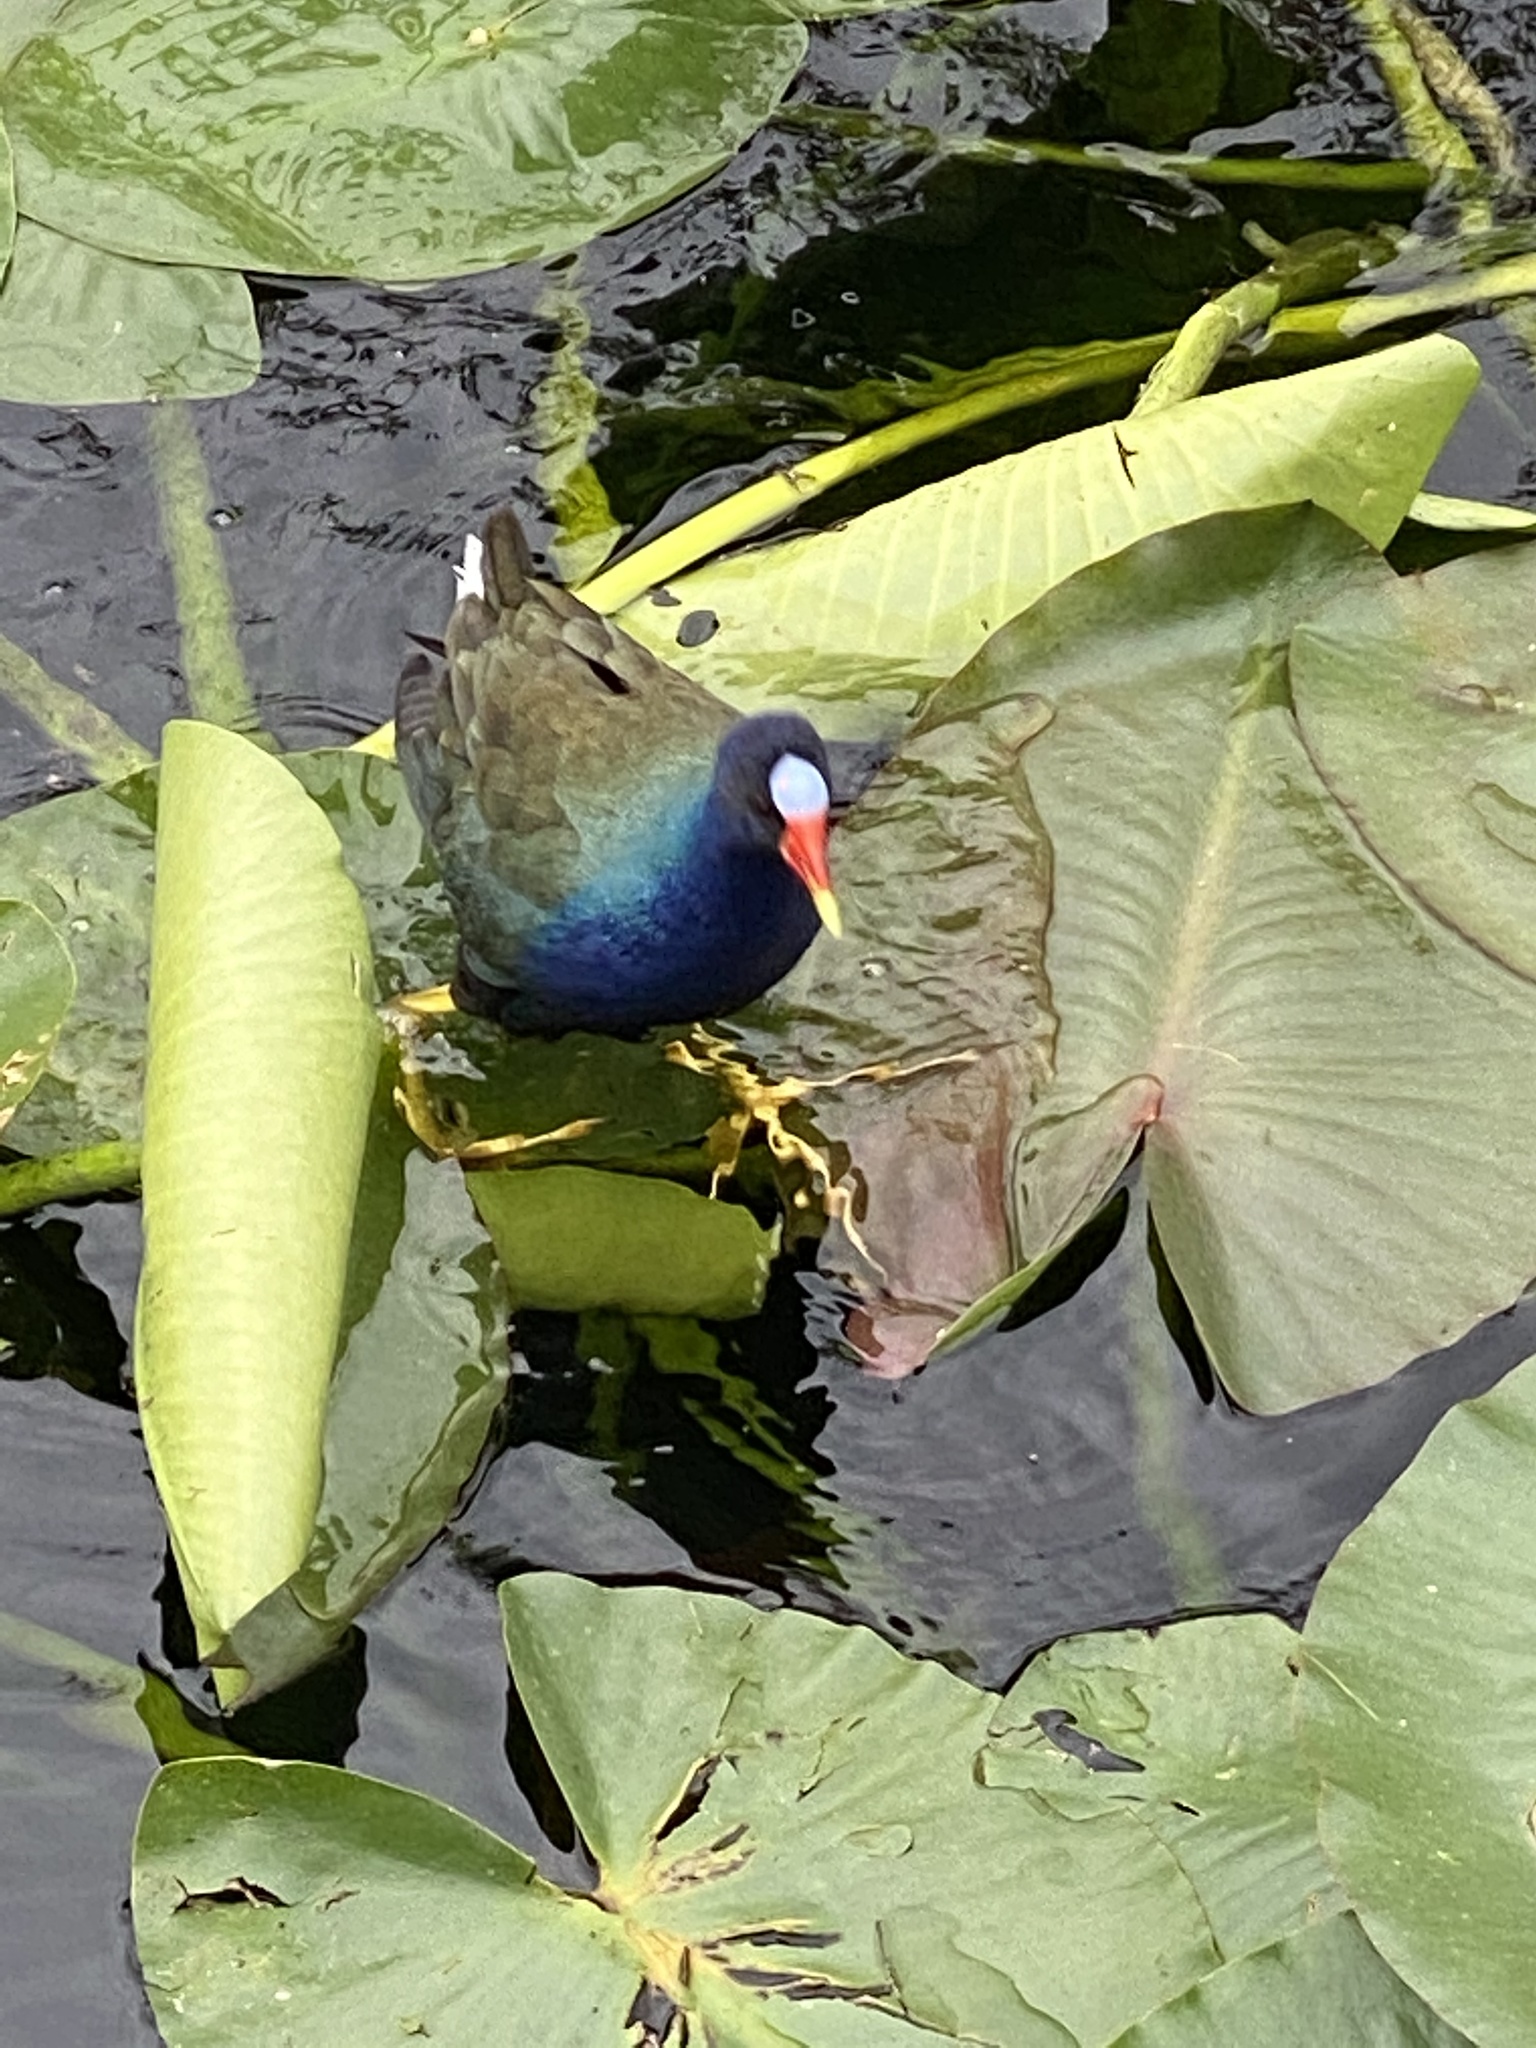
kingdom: Animalia
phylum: Chordata
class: Aves
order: Gruiformes
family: Rallidae
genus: Porphyrio
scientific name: Porphyrio martinica
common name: Purple gallinule
